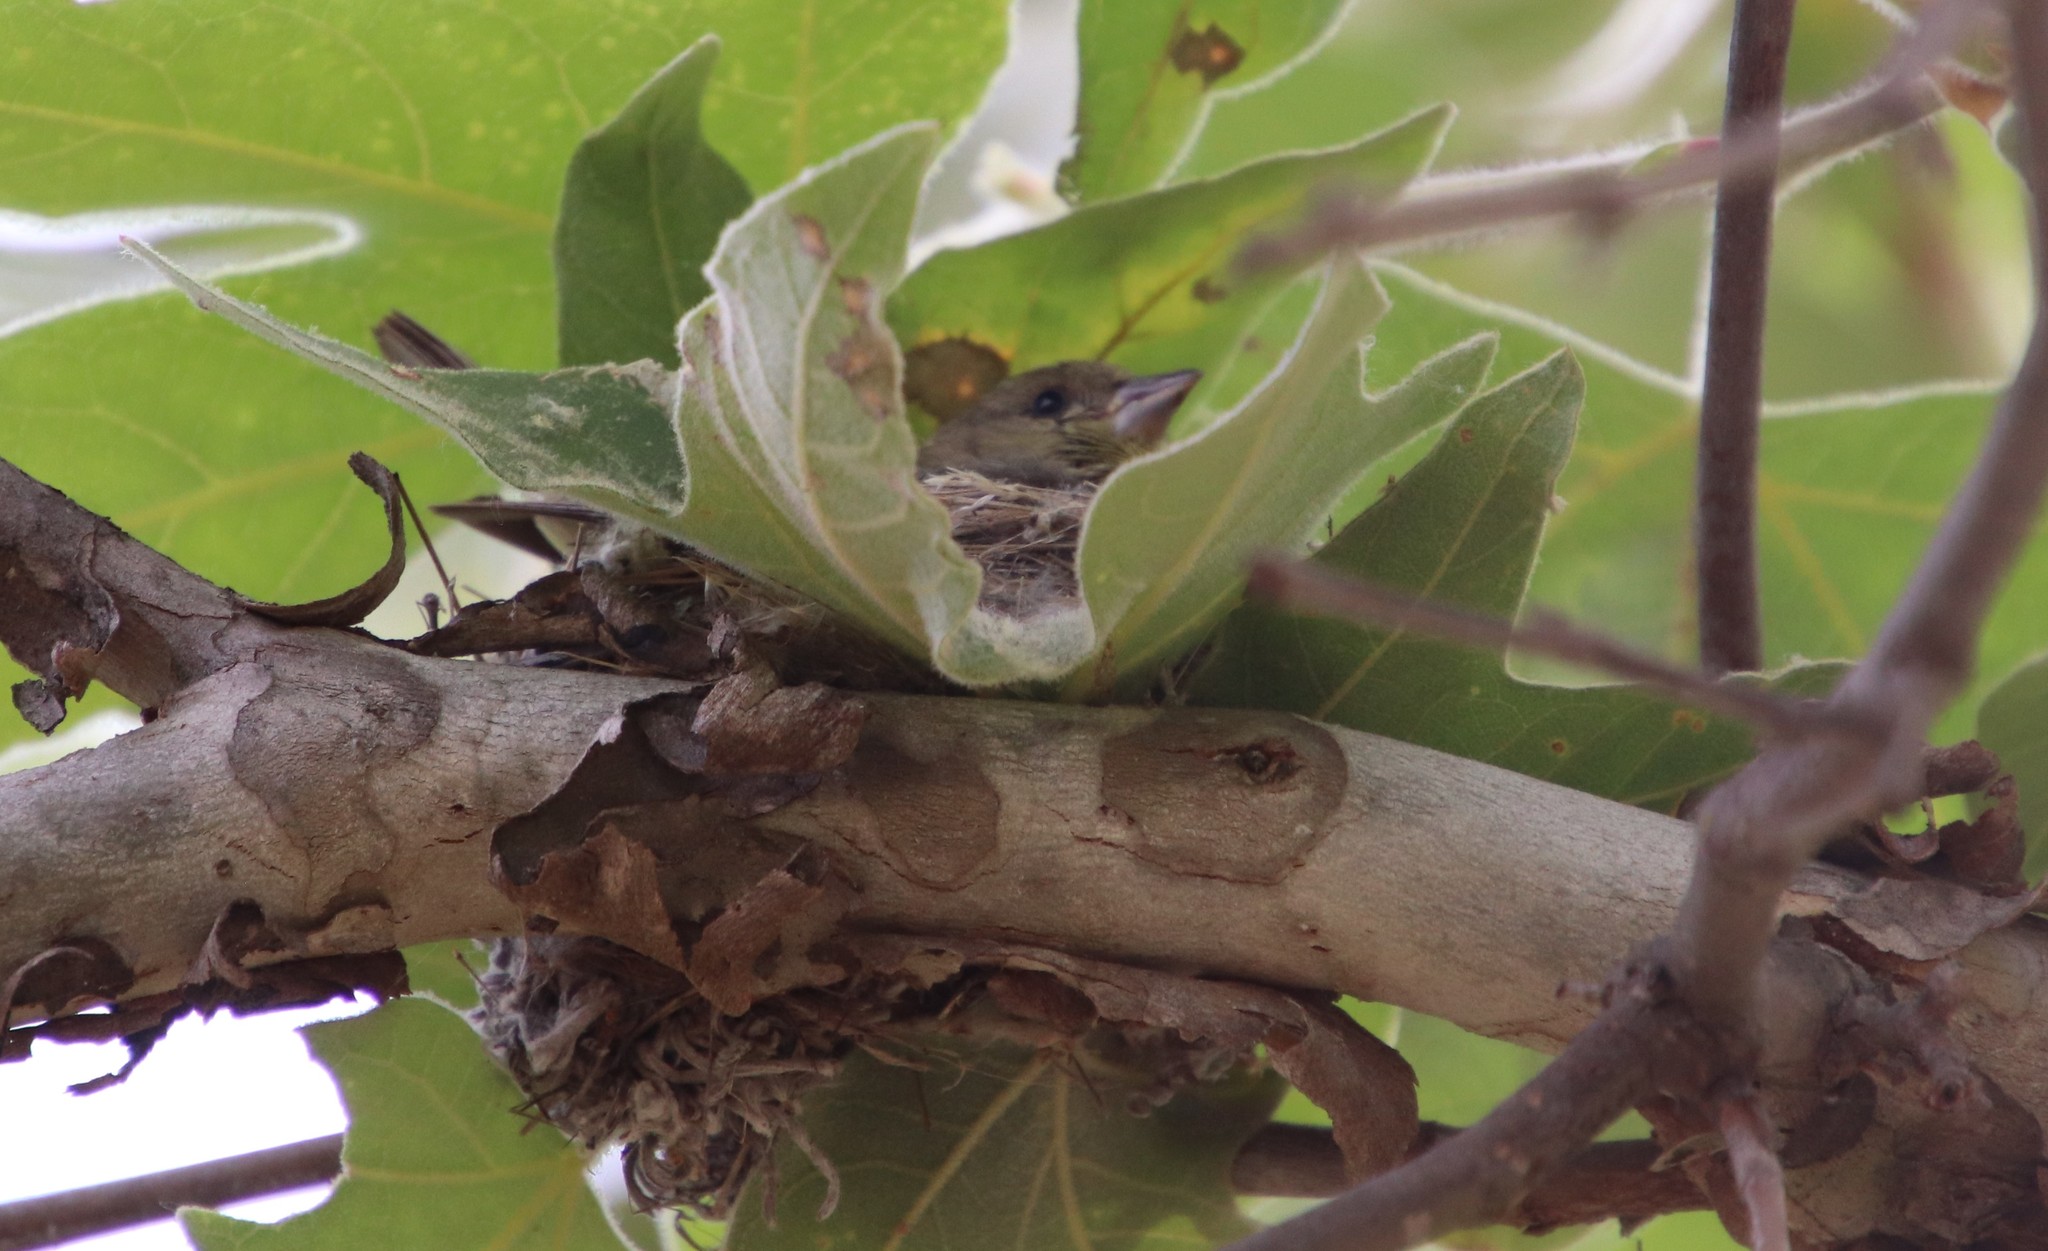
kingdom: Animalia
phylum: Chordata
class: Aves
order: Passeriformes
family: Fringillidae
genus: Spinus
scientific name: Spinus psaltria
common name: Lesser goldfinch
